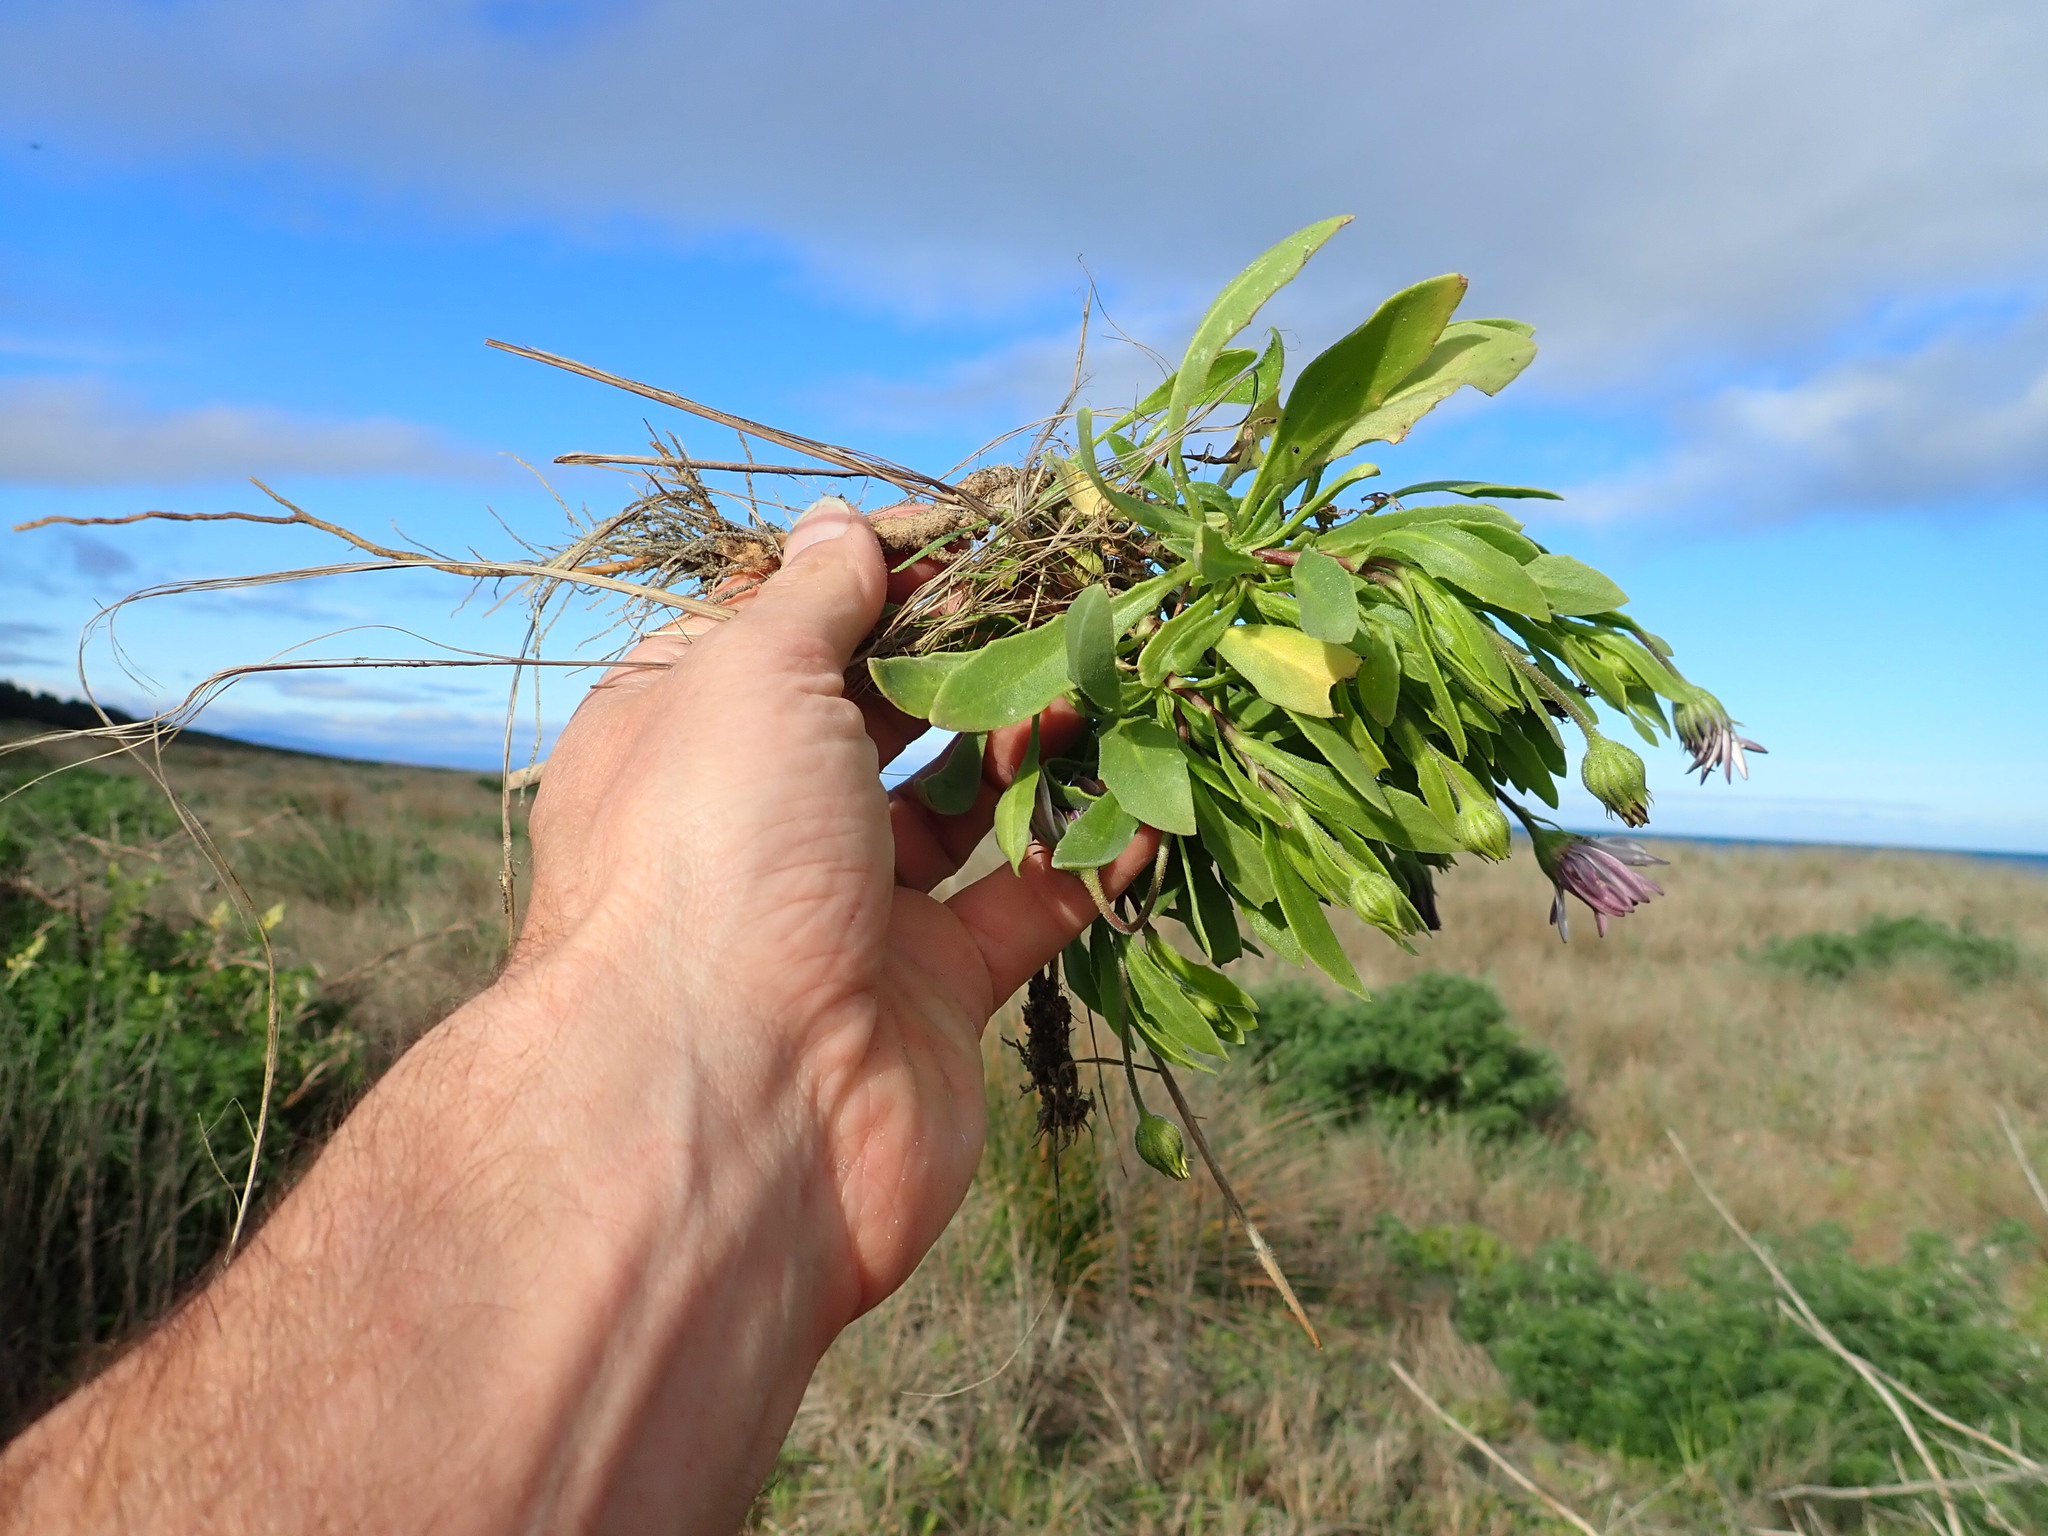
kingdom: Plantae
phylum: Tracheophyta
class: Magnoliopsida
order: Asterales
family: Asteraceae
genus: Dimorphotheca
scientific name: Dimorphotheca fruticosa
